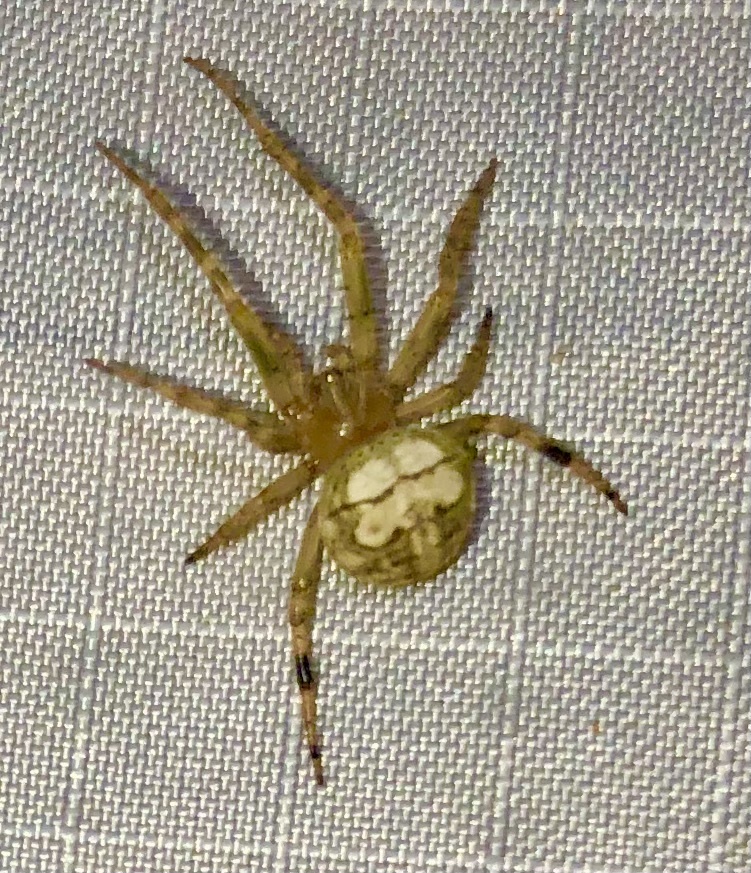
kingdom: Animalia
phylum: Arthropoda
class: Arachnida
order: Araneae
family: Araneidae
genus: Araneus
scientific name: Araneus pegnia
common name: Orb weavers
